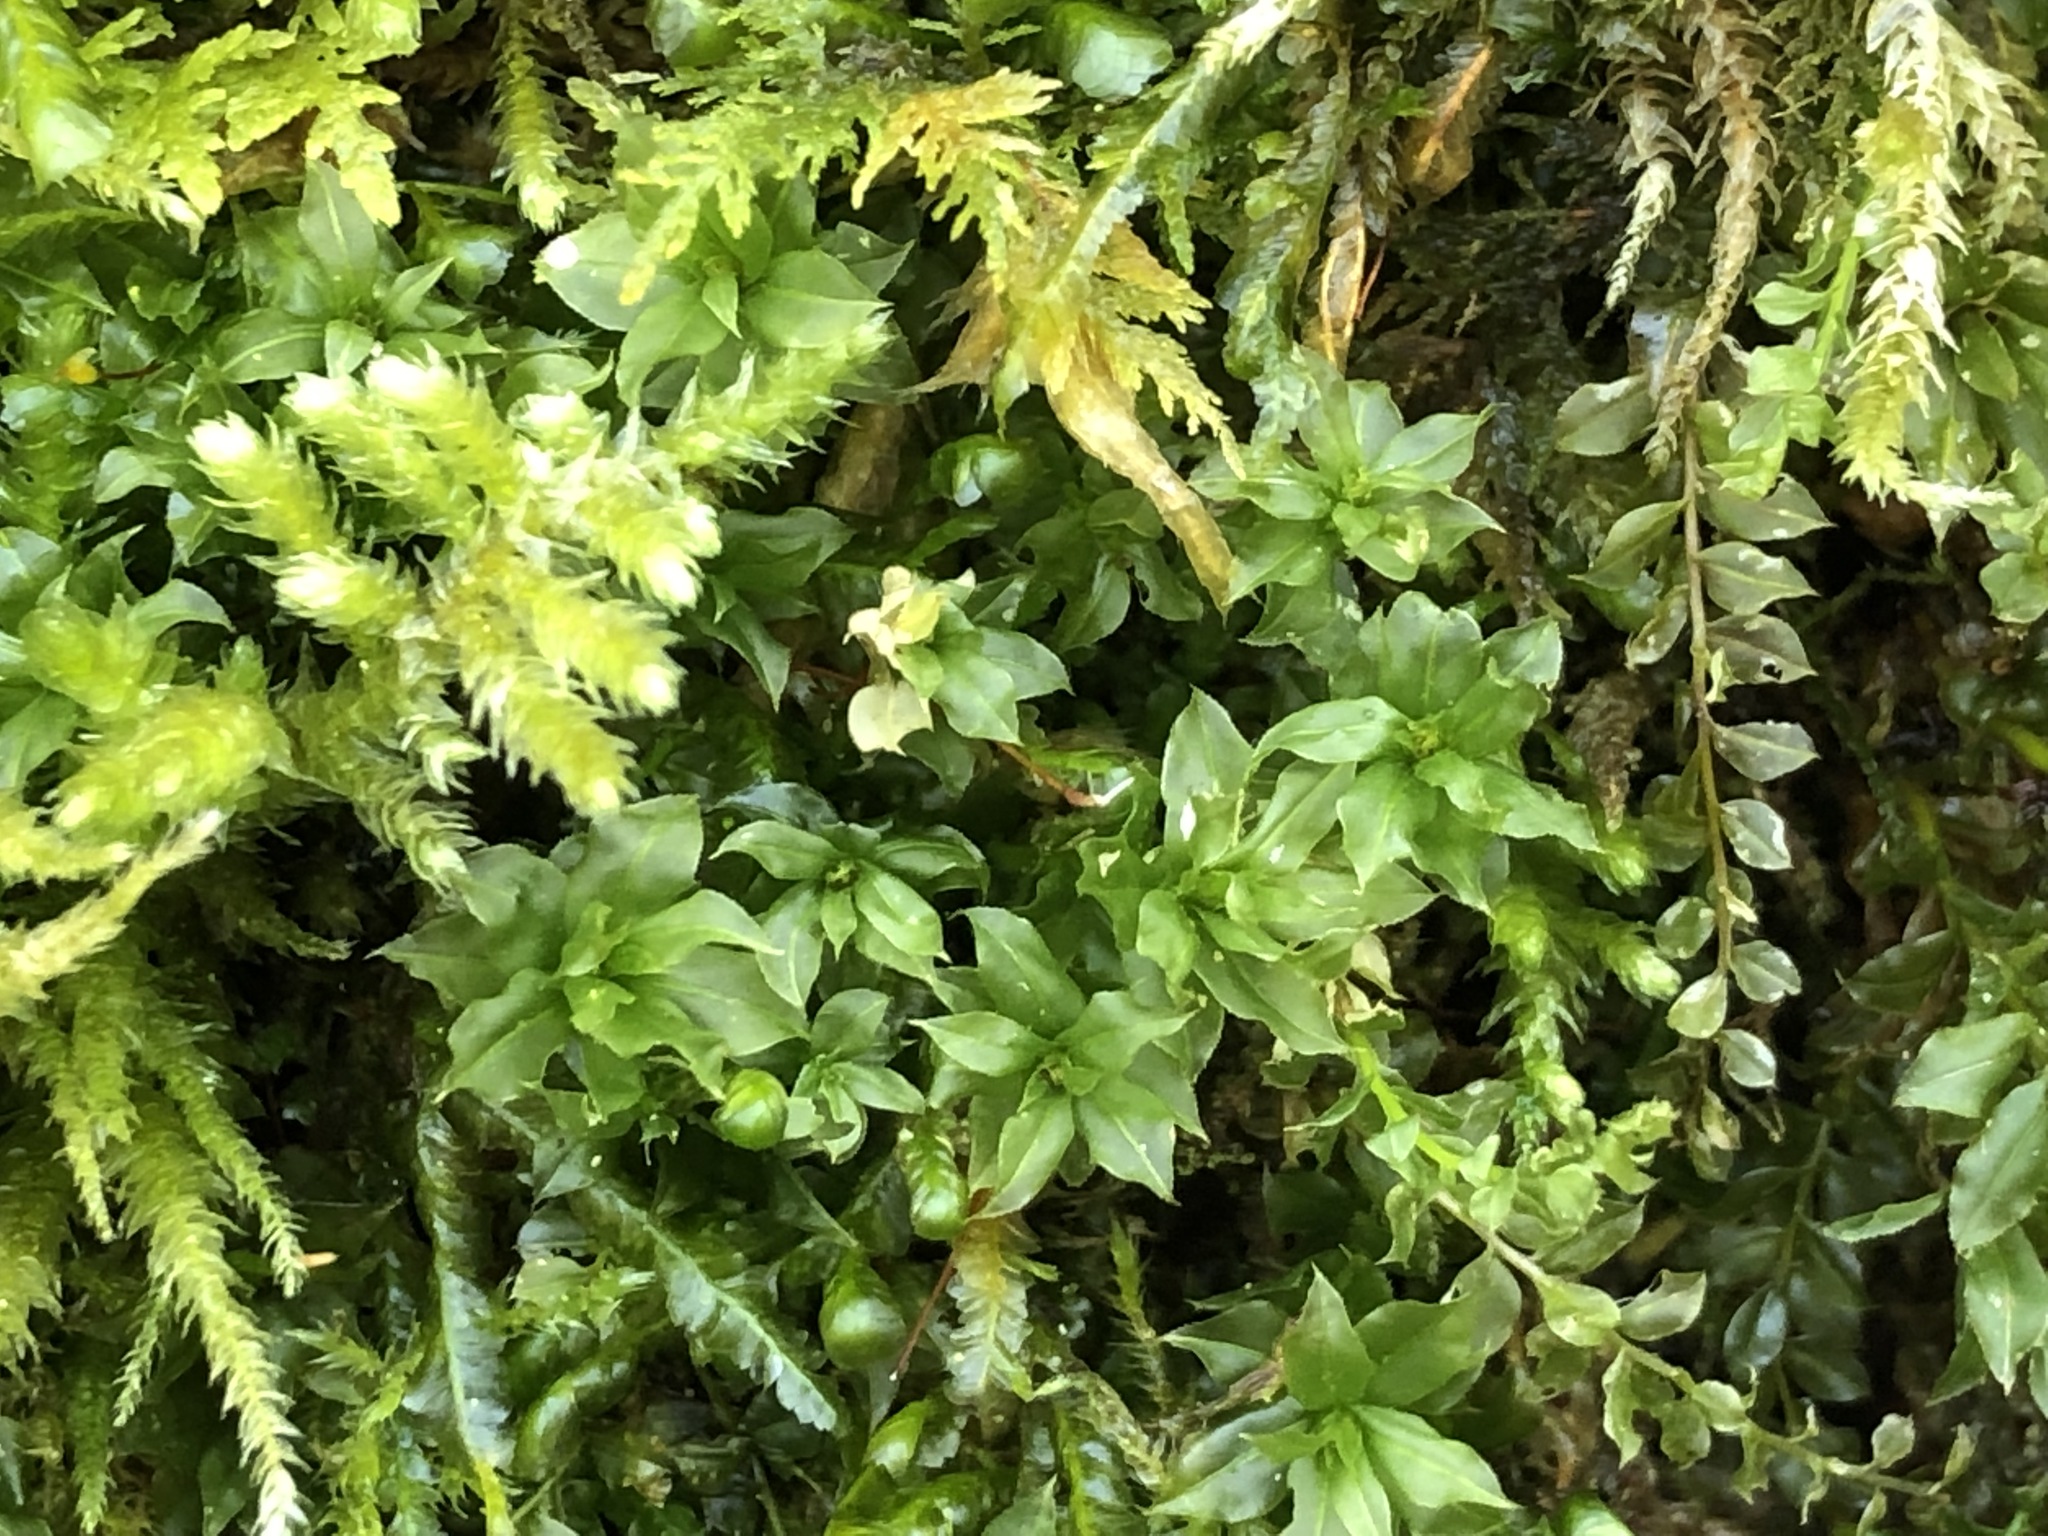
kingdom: Plantae
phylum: Bryophyta
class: Bryopsida
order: Bryales
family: Mniaceae
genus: Plagiomnium
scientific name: Plagiomnium cuspidatum
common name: Woodsy leafy moss
